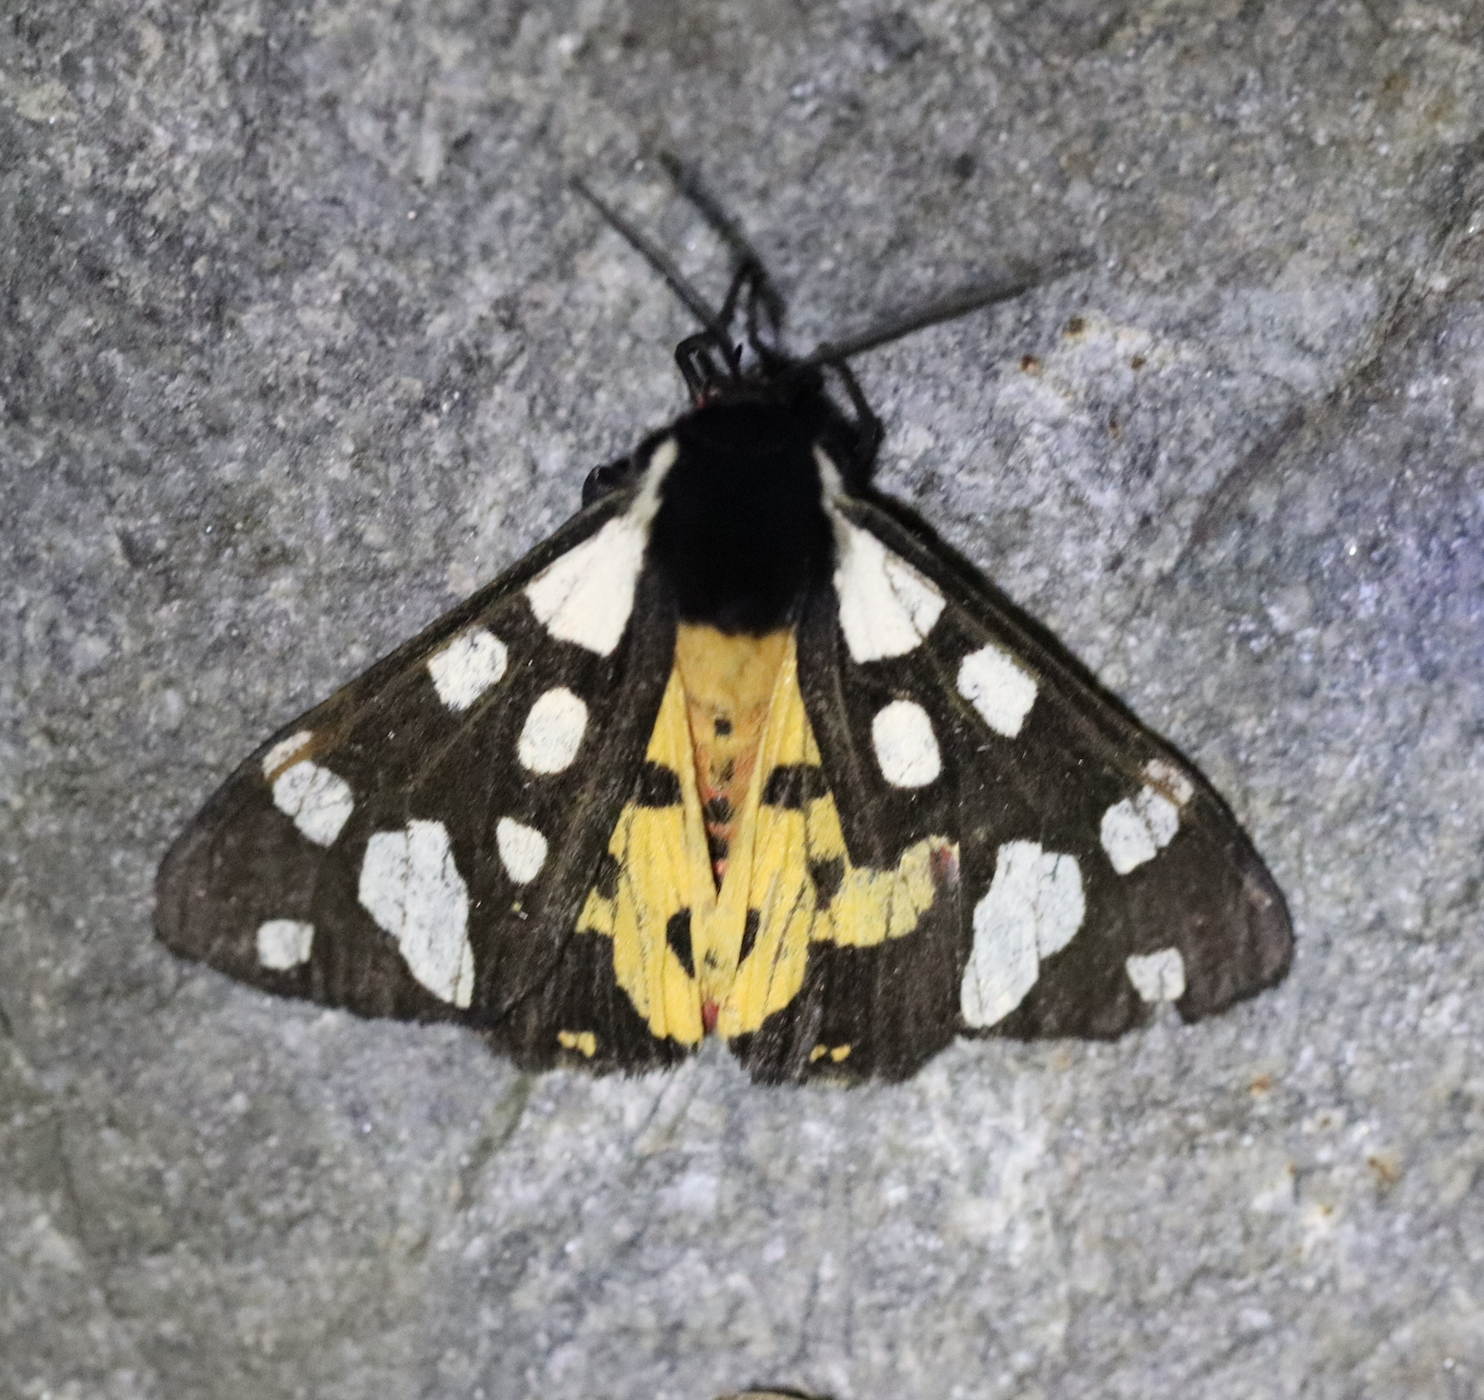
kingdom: Animalia
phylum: Arthropoda
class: Insecta
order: Lepidoptera
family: Erebidae
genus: Epicallia
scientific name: Epicallia villica
